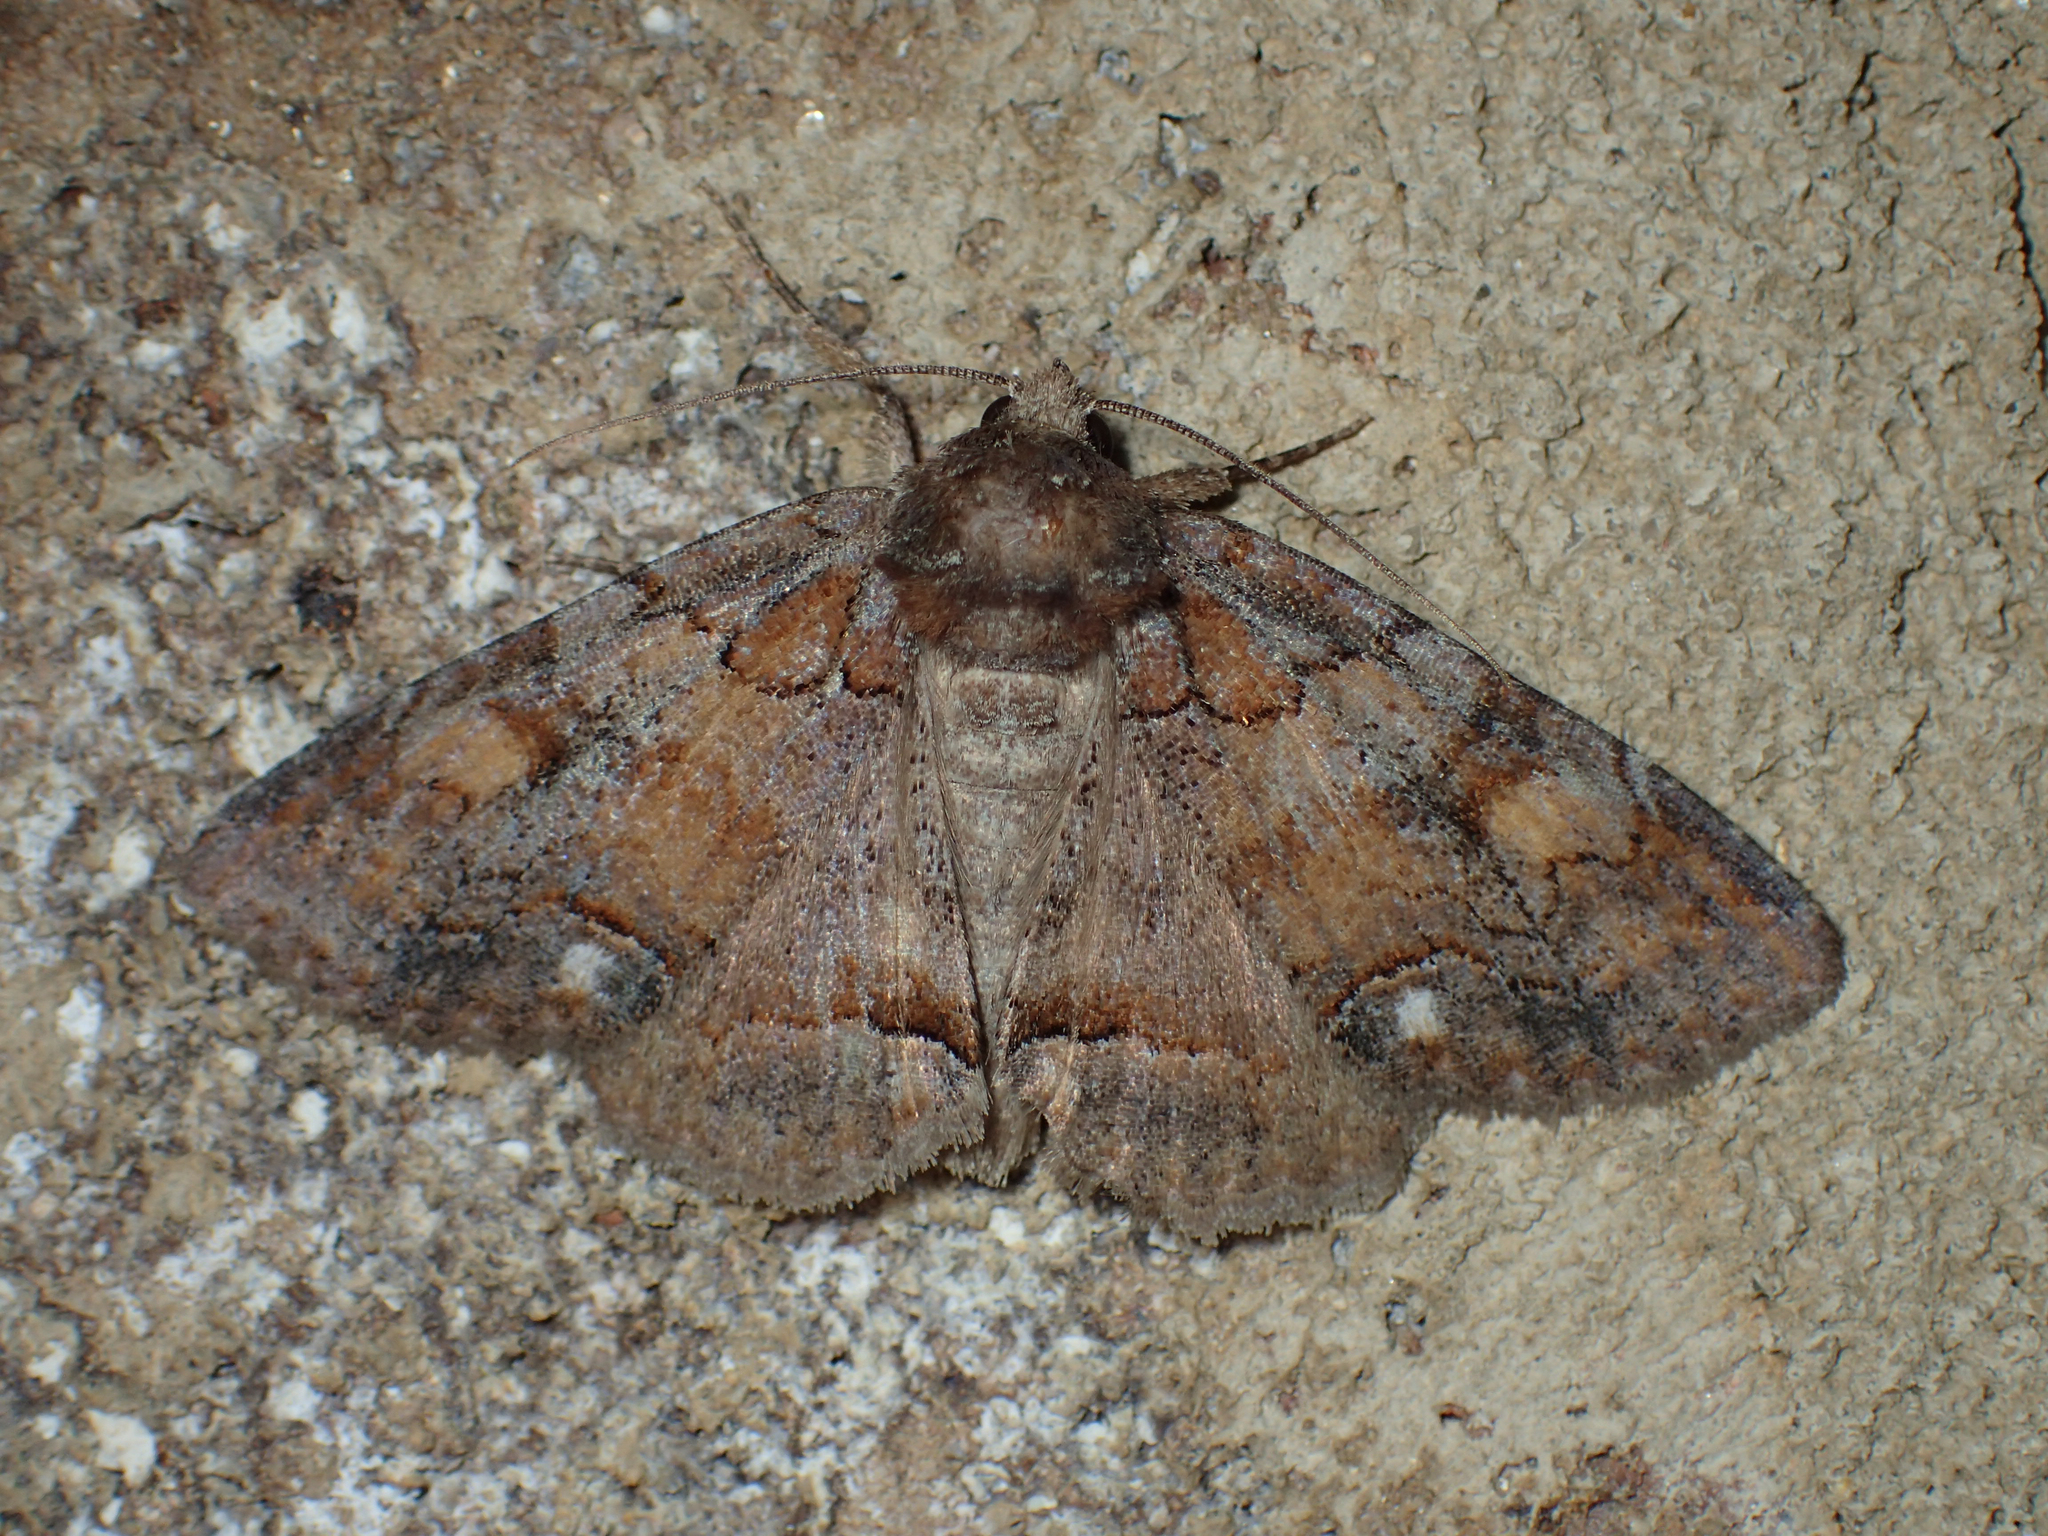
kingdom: Animalia
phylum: Arthropoda
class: Insecta
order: Lepidoptera
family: Erebidae
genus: Zale
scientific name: Zale submediana
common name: Gray spring zale
